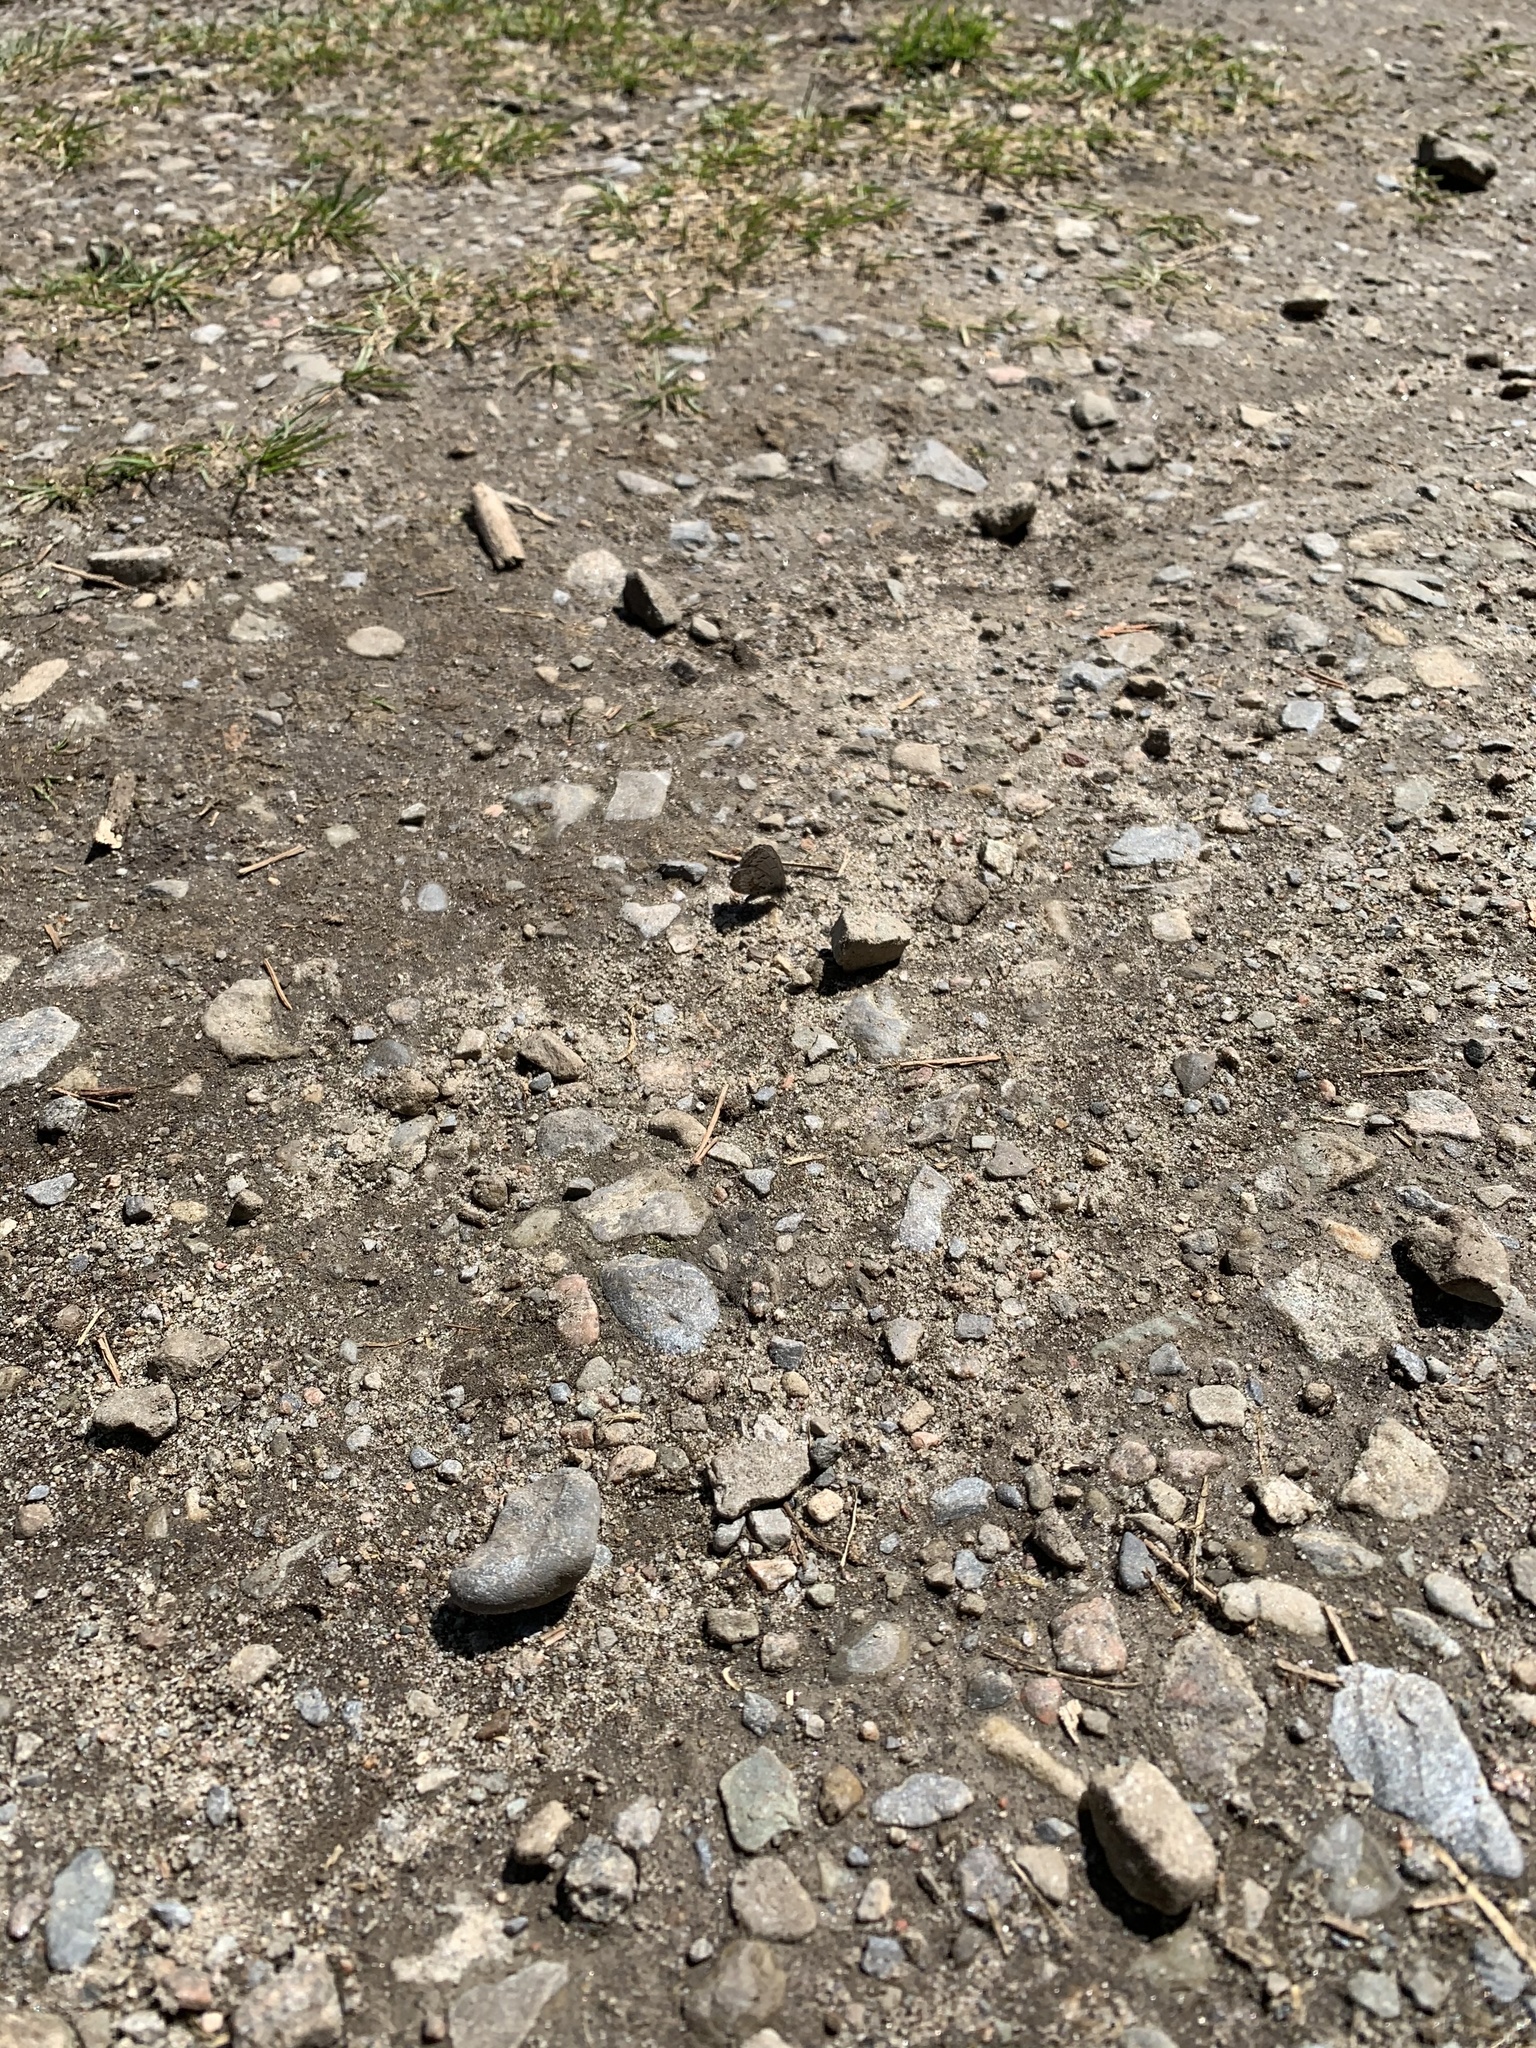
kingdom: Animalia
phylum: Arthropoda
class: Insecta
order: Lepidoptera
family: Lycaenidae
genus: Celastrina
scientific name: Celastrina lucia
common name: Lucia azure
